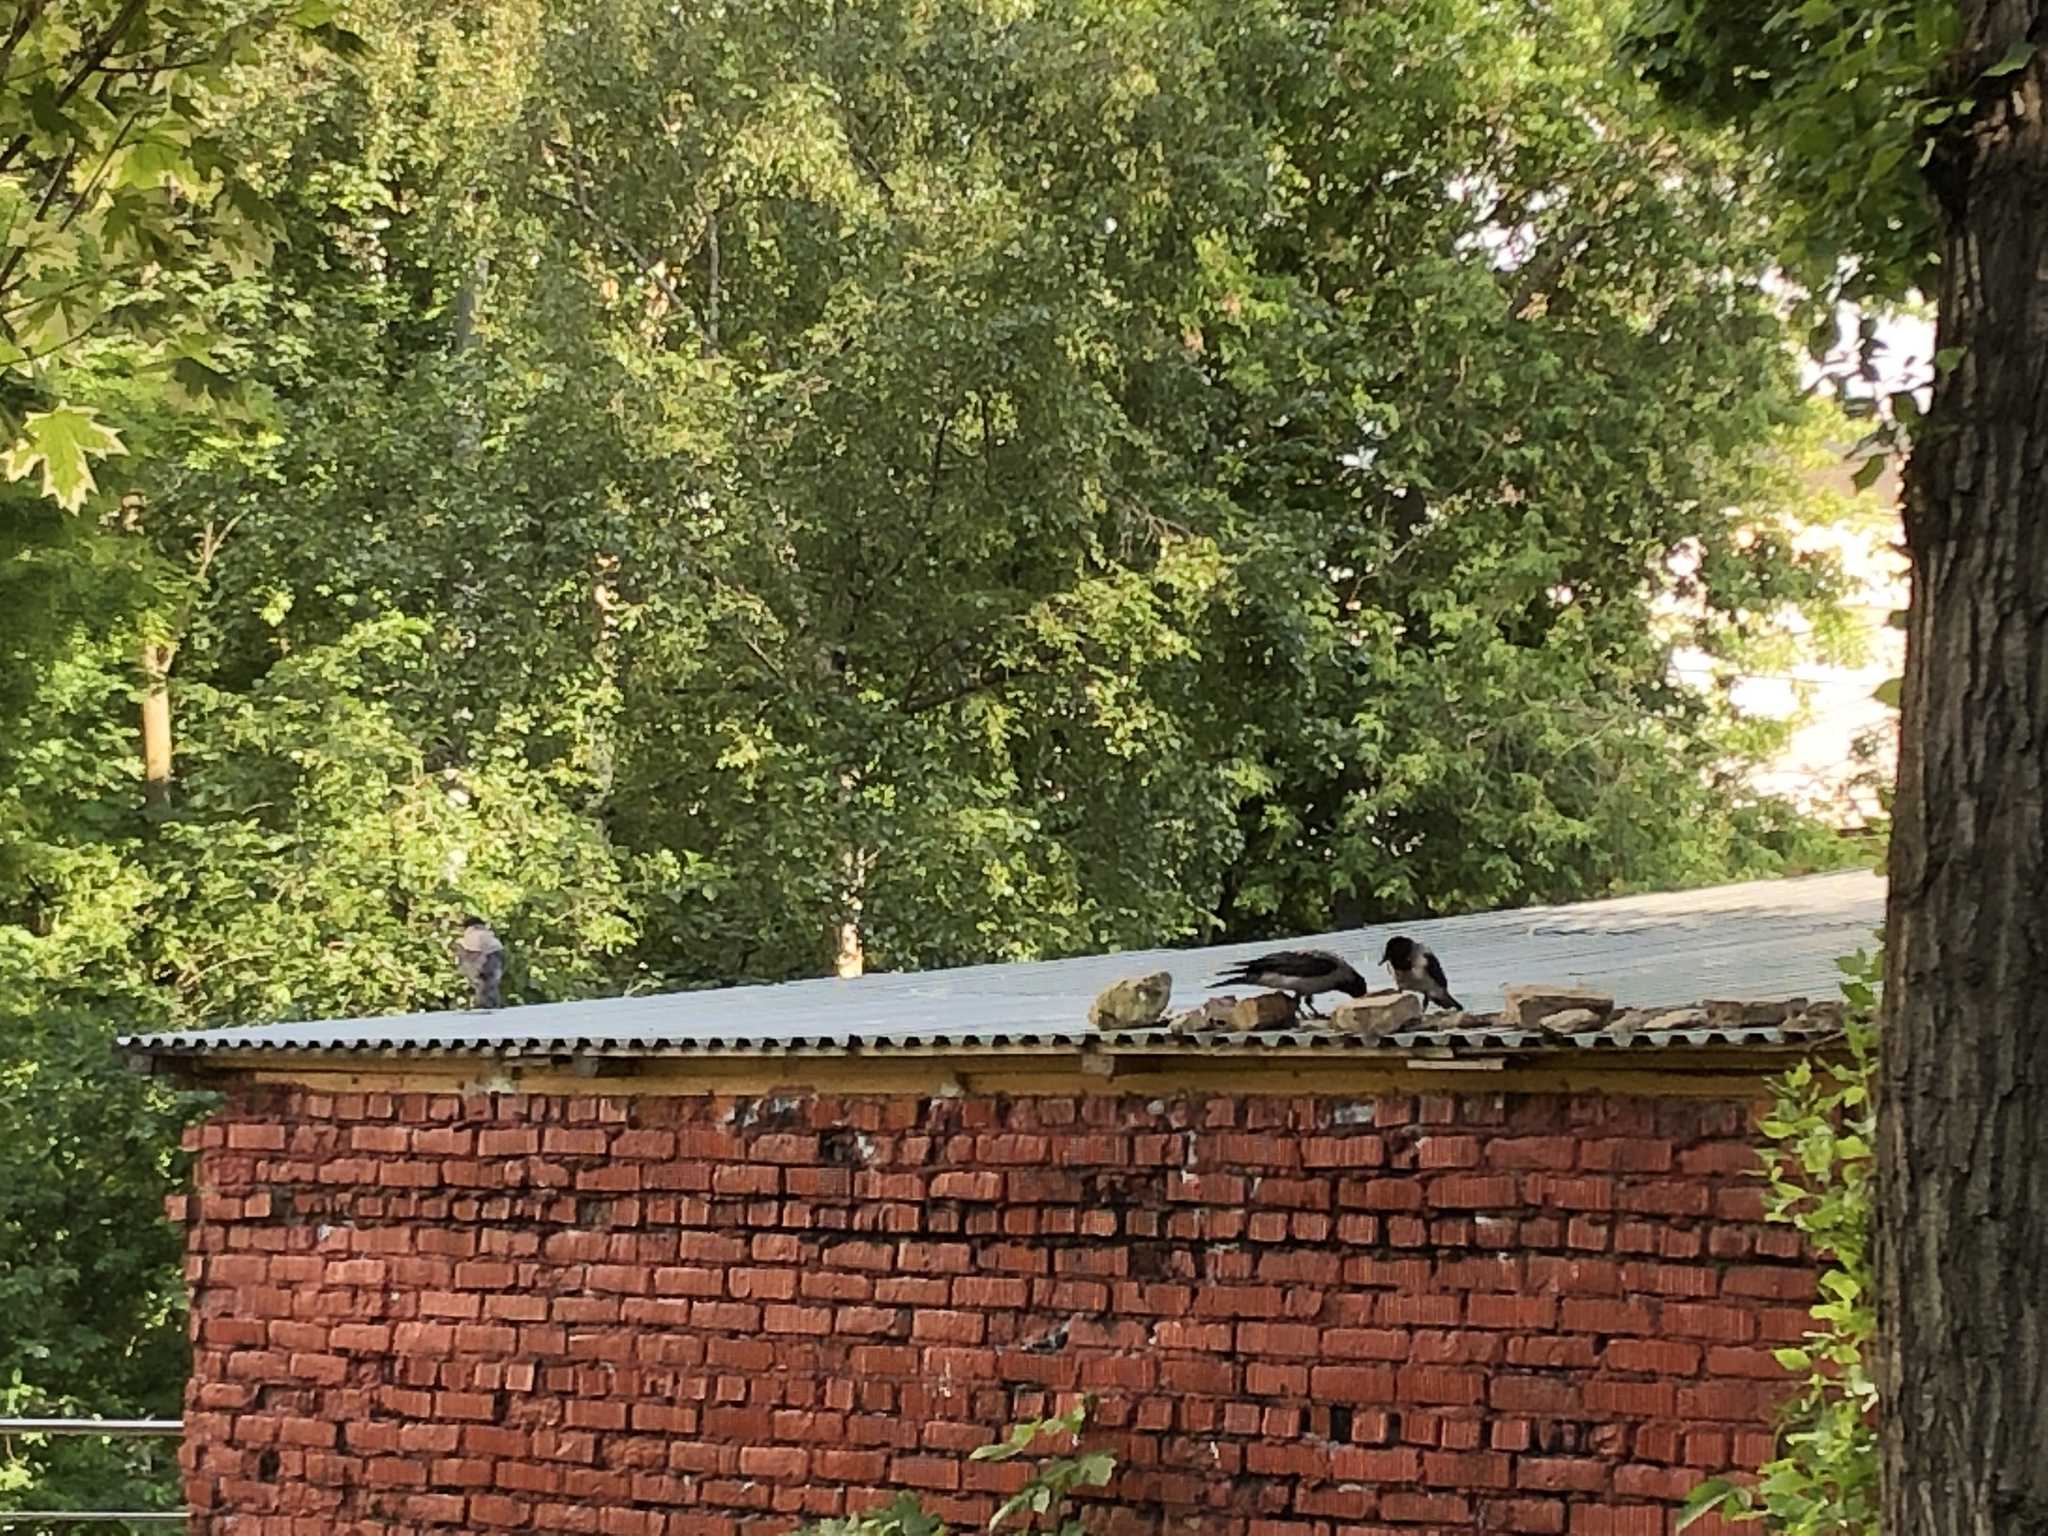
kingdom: Animalia
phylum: Chordata
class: Aves
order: Passeriformes
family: Corvidae
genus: Corvus
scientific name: Corvus cornix
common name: Hooded crow
